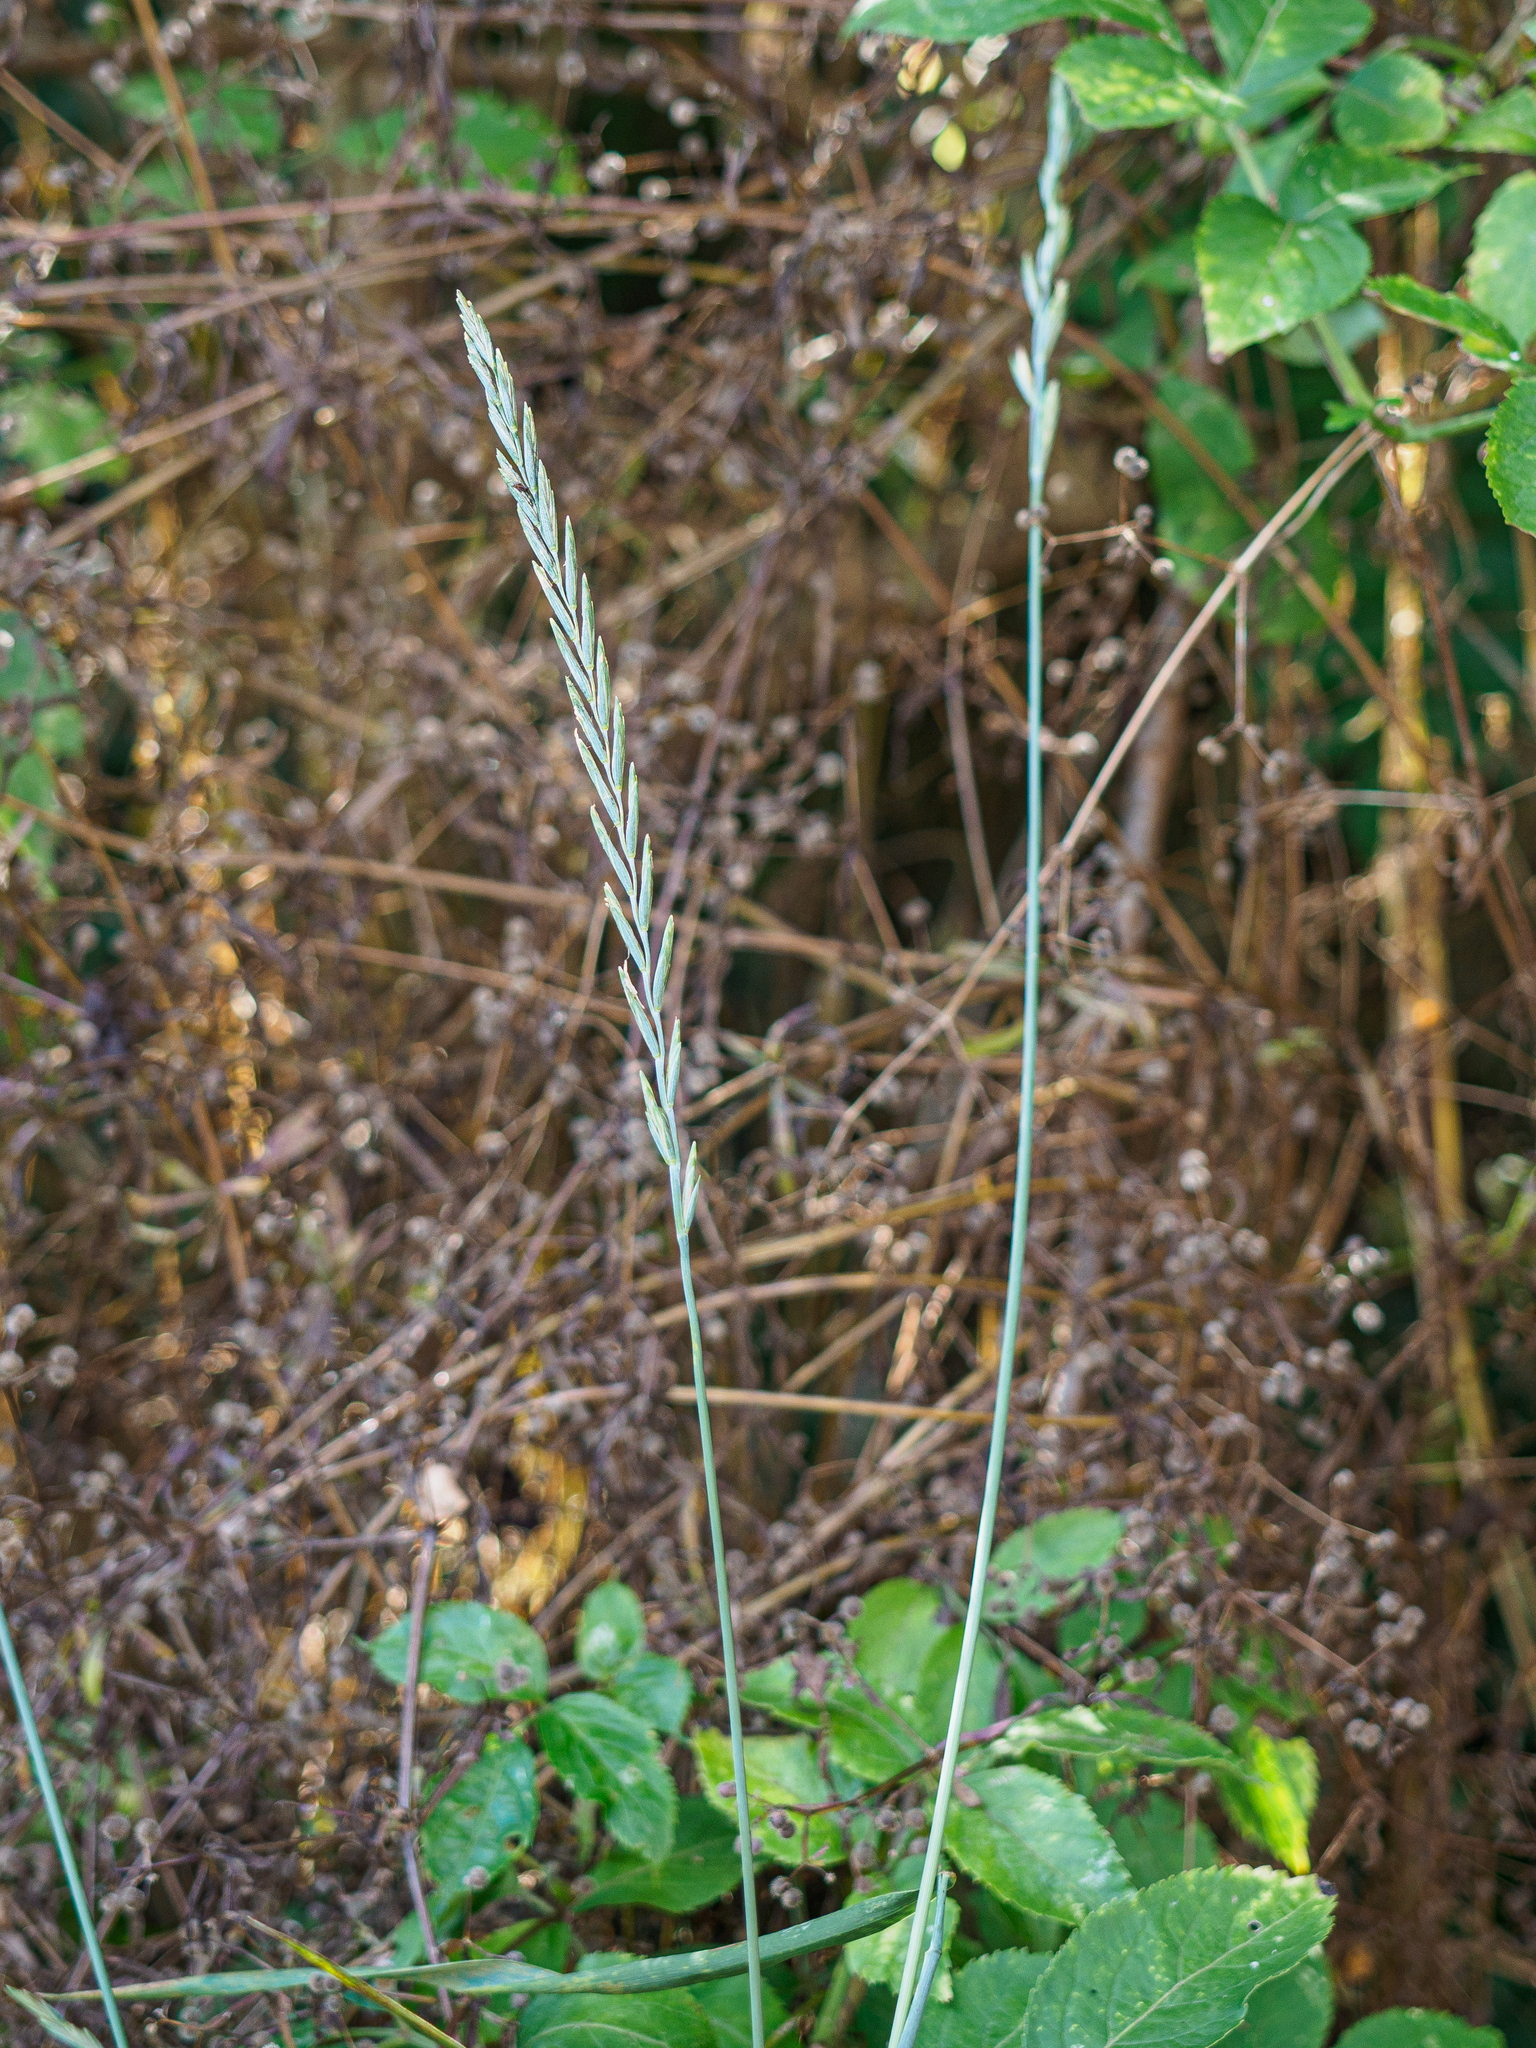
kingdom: Plantae
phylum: Tracheophyta
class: Liliopsida
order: Poales
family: Poaceae
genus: Elymus
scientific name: Elymus repens
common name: Quackgrass
